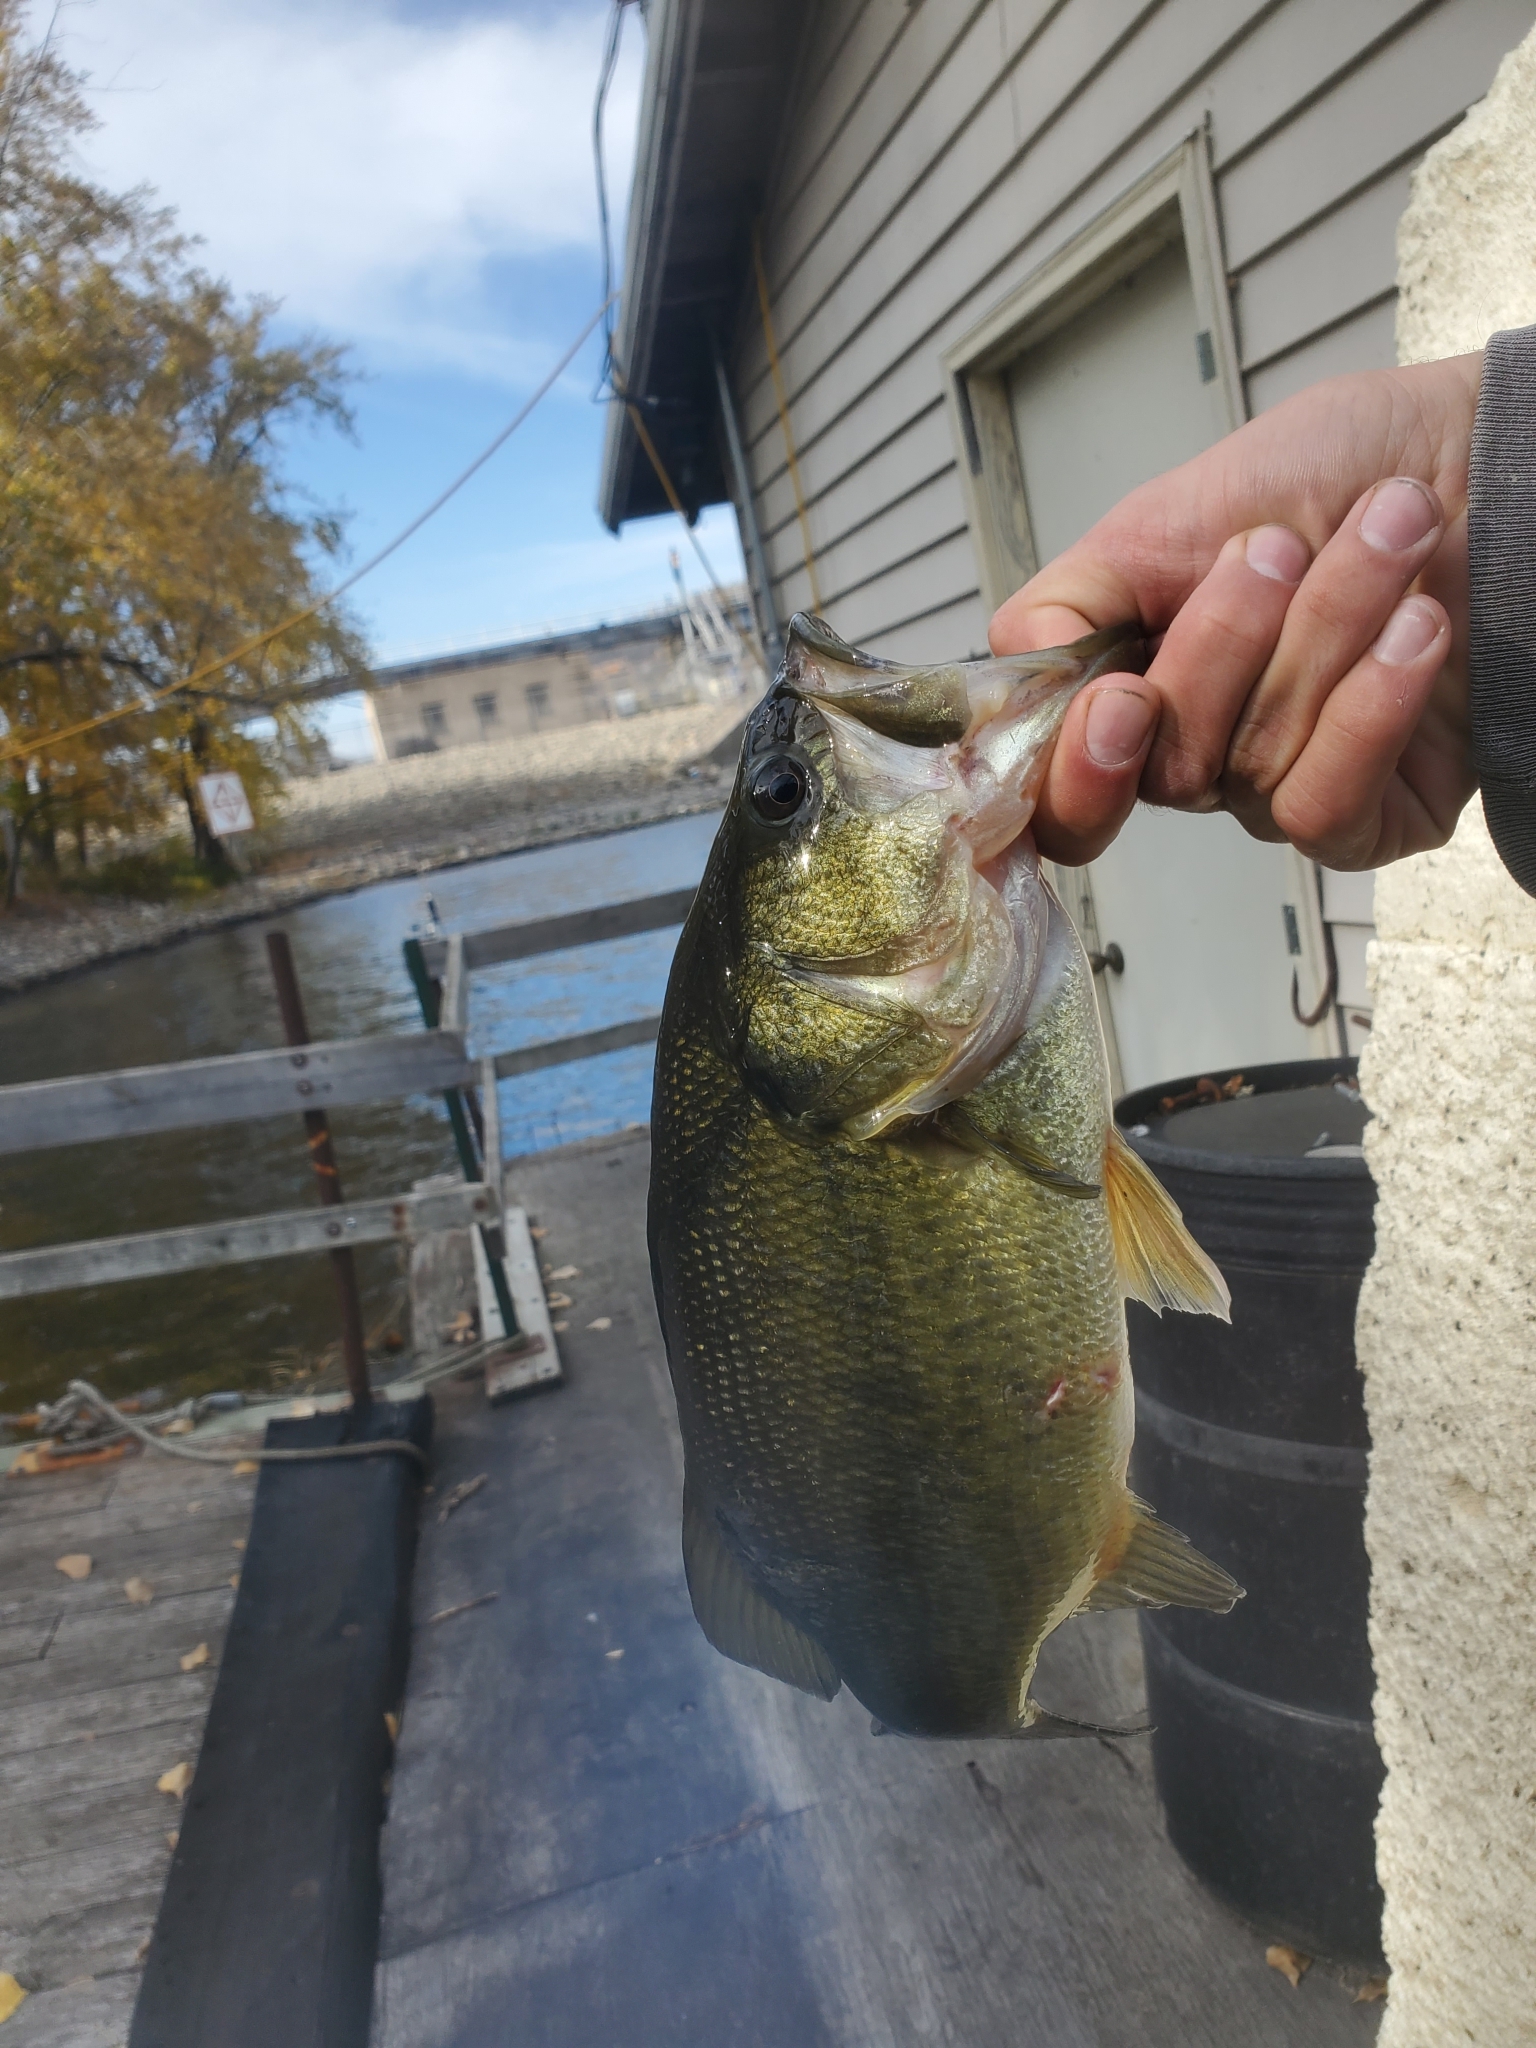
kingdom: Animalia
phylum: Chordata
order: Perciformes
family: Centrarchidae
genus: Micropterus
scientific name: Micropterus
